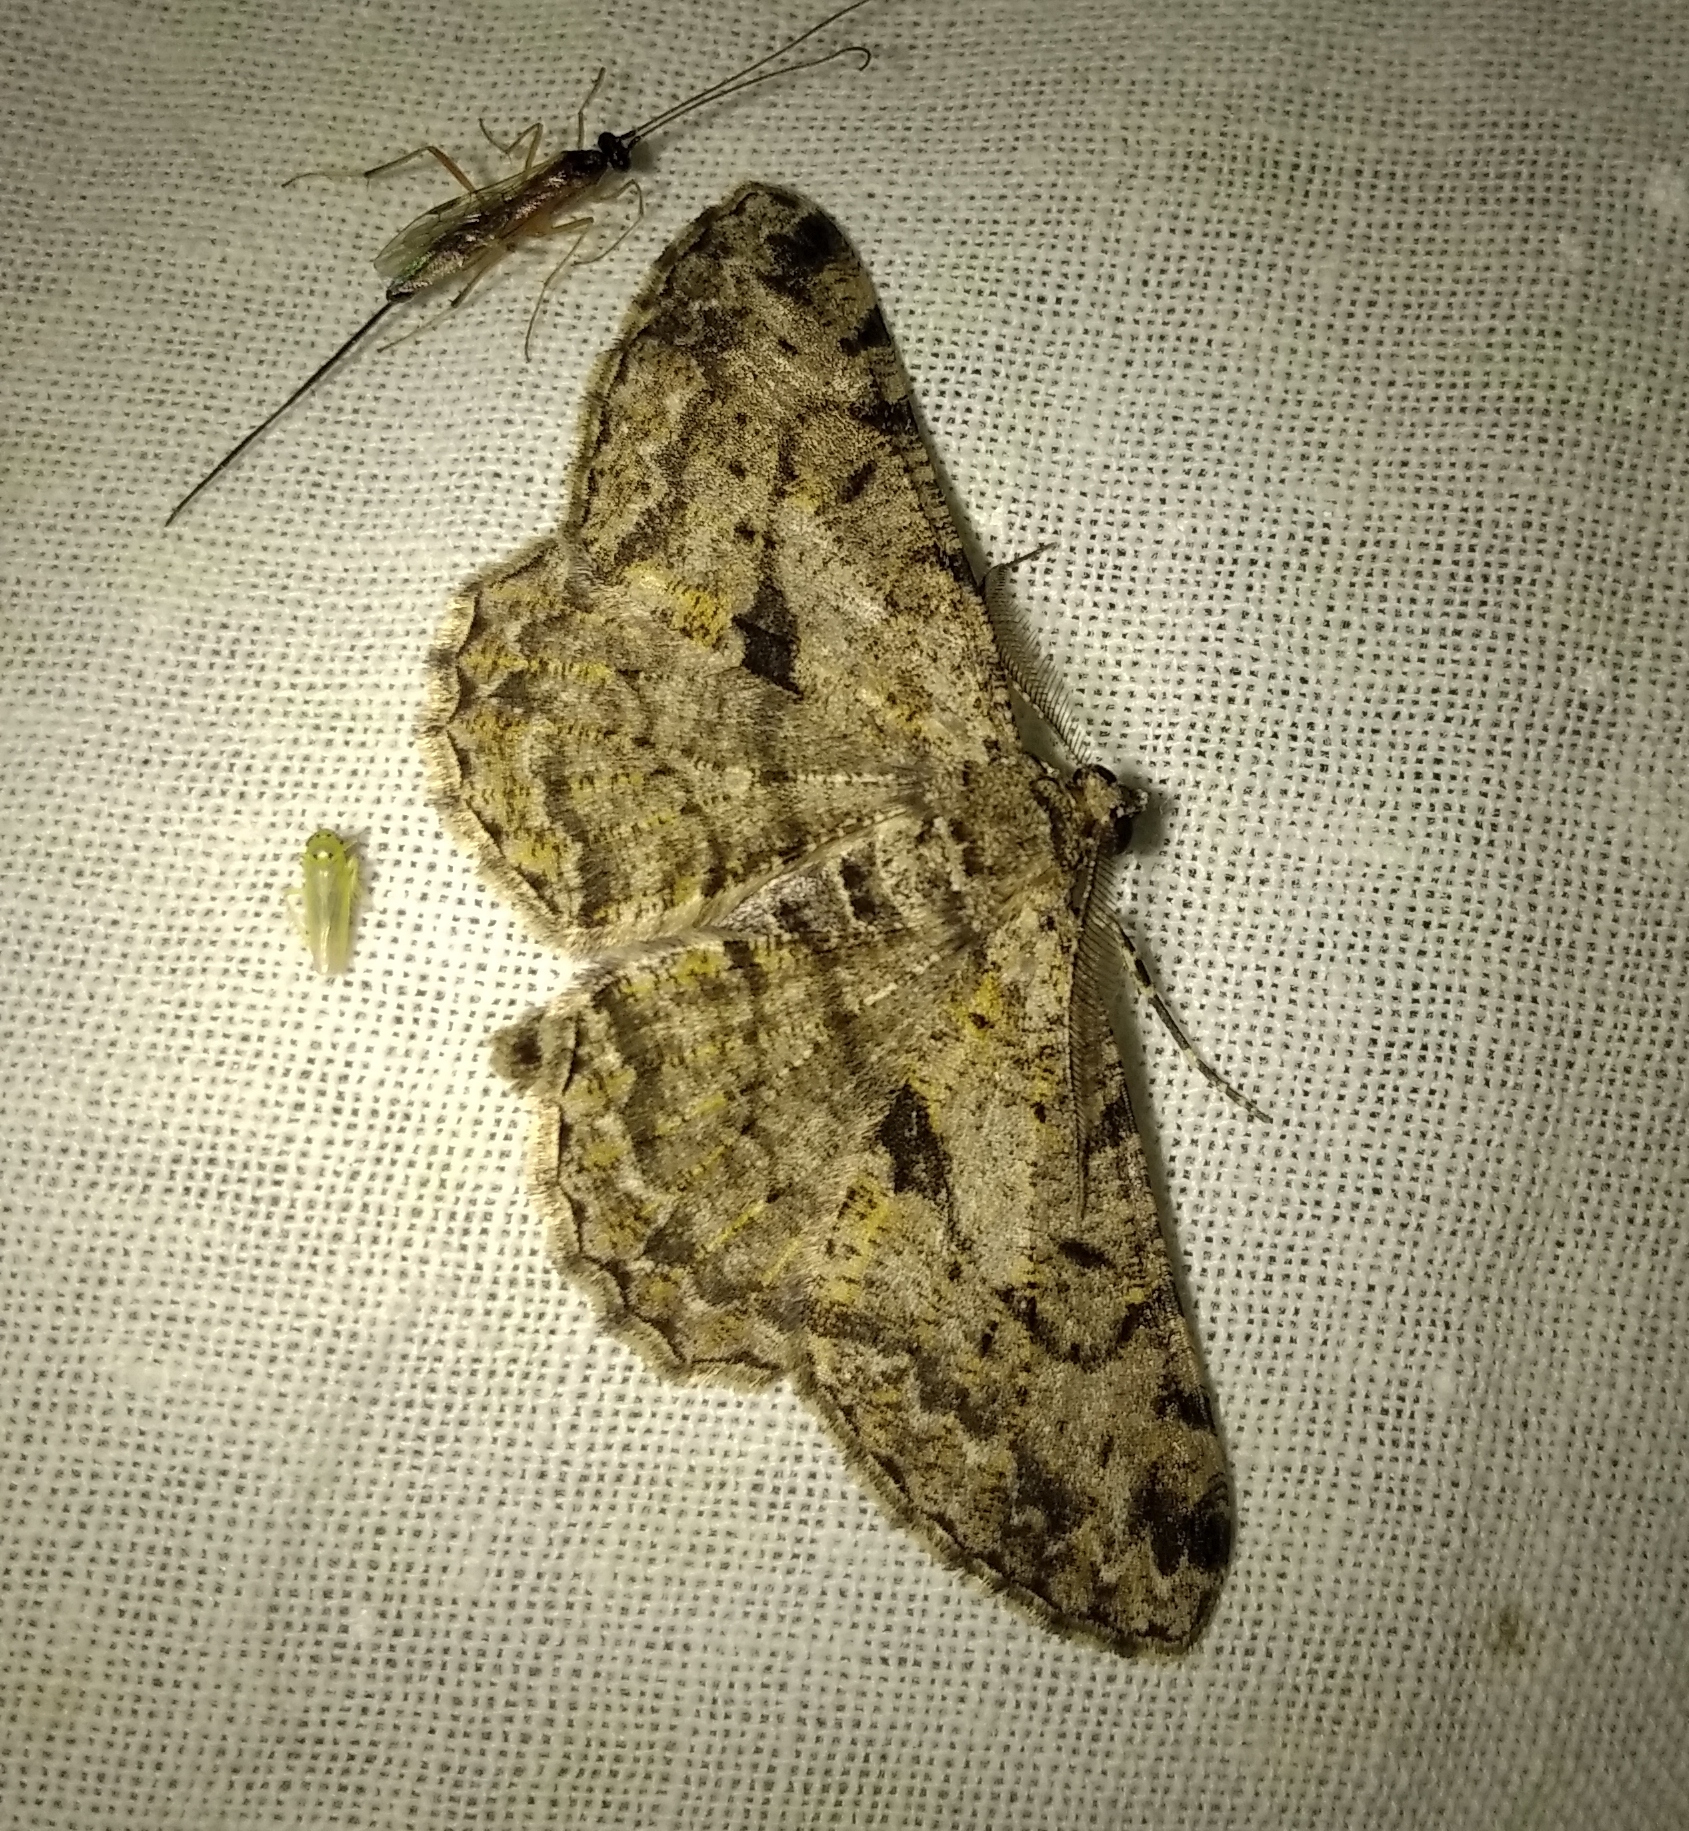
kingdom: Animalia
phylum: Arthropoda
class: Insecta
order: Lepidoptera
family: Geometridae
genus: Peribatodes
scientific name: Peribatodes rhomboidaria
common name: Willow beauty
